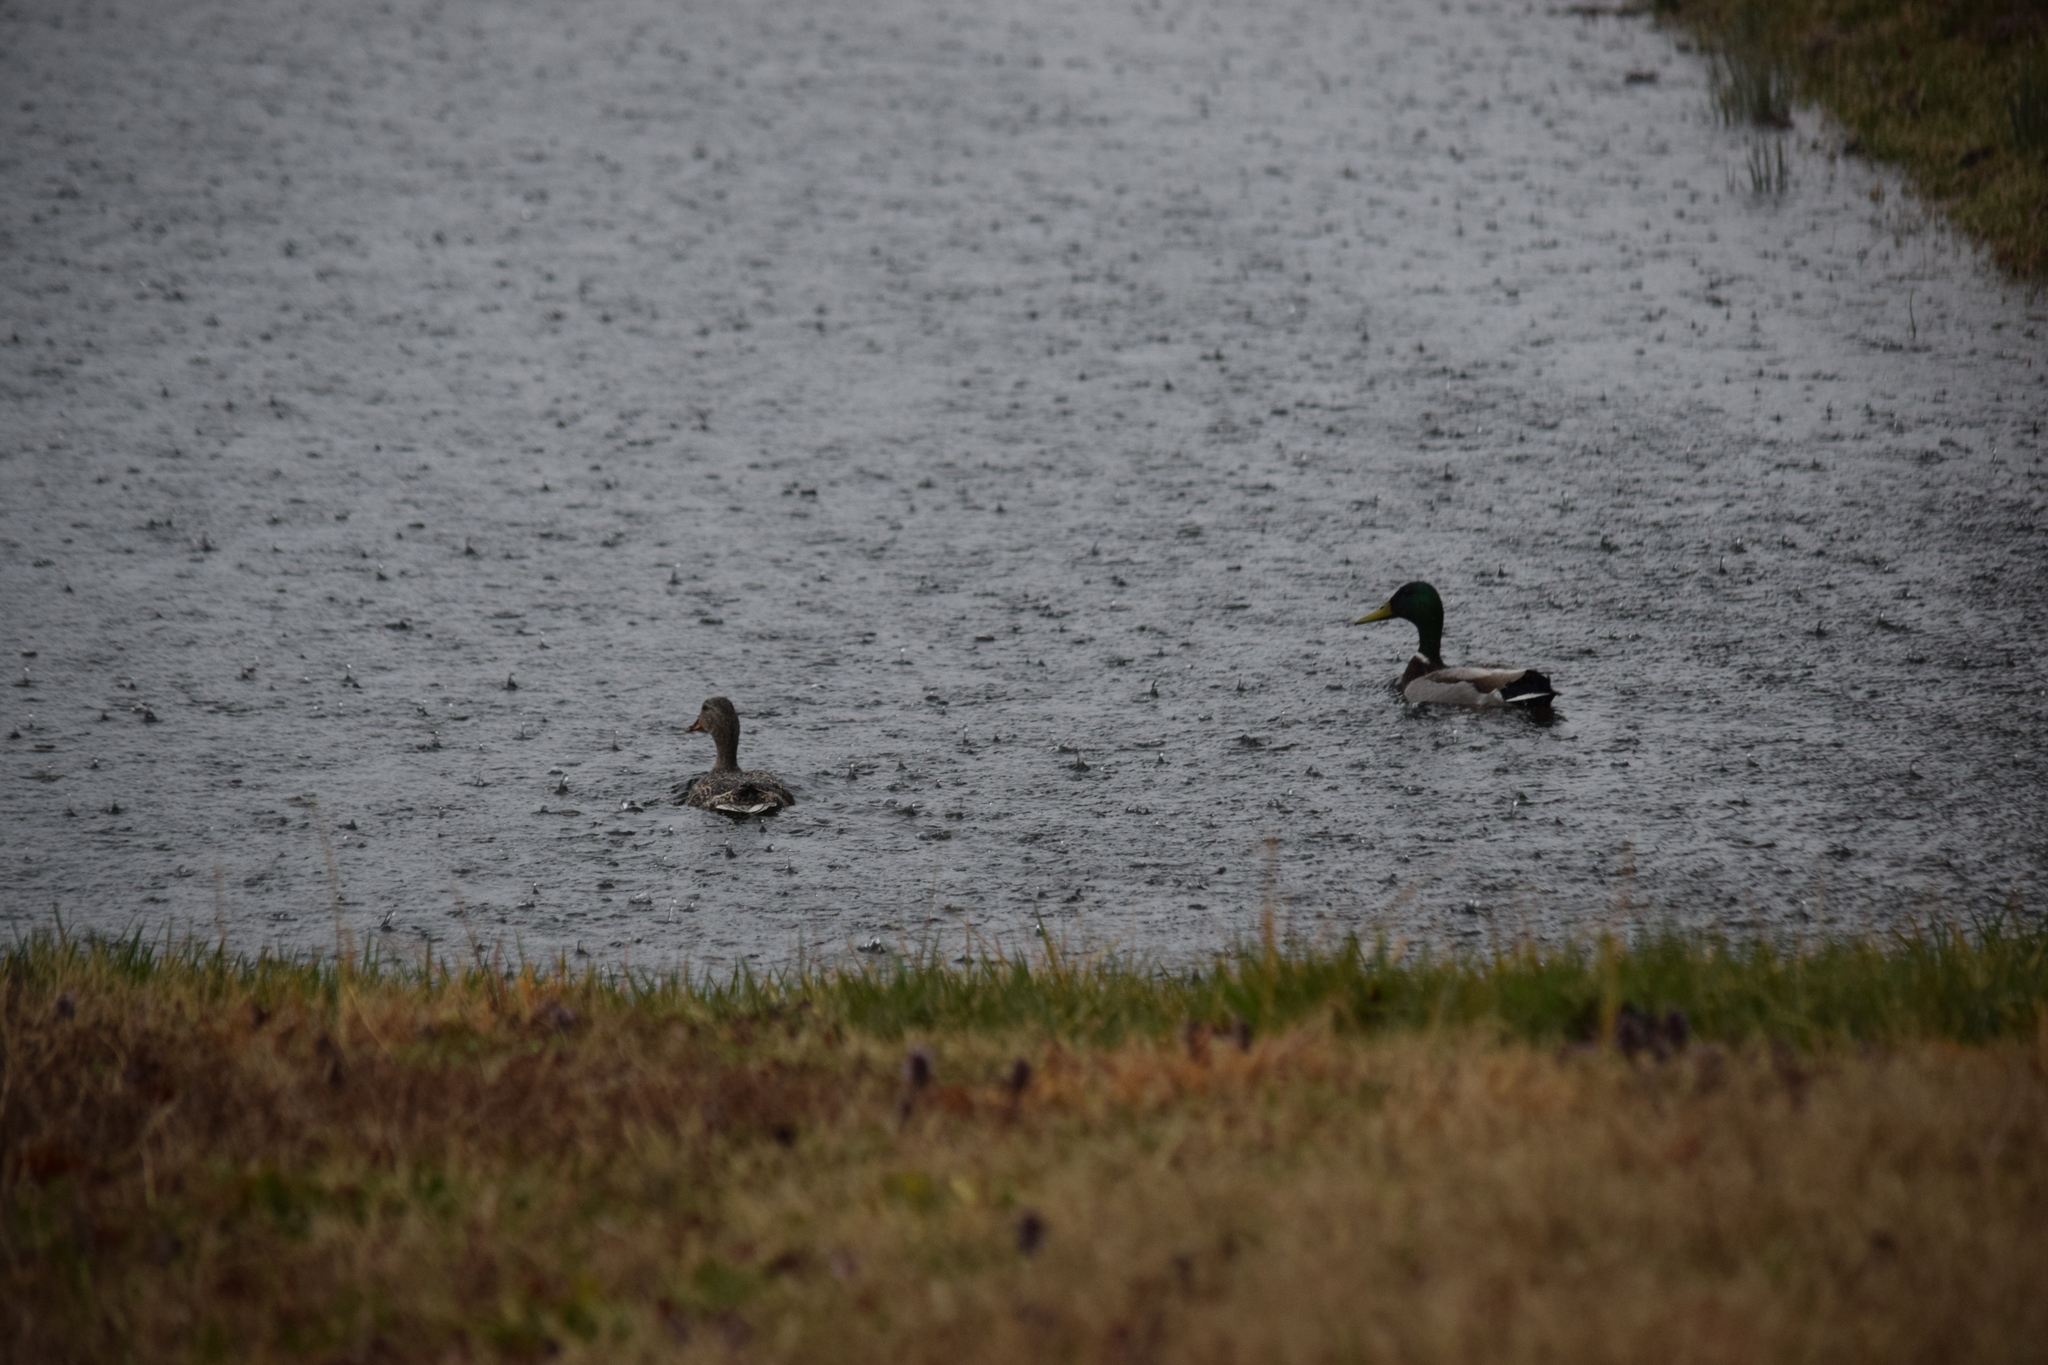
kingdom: Animalia
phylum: Chordata
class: Aves
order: Anseriformes
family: Anatidae
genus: Anas
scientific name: Anas platyrhynchos
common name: Mallard
